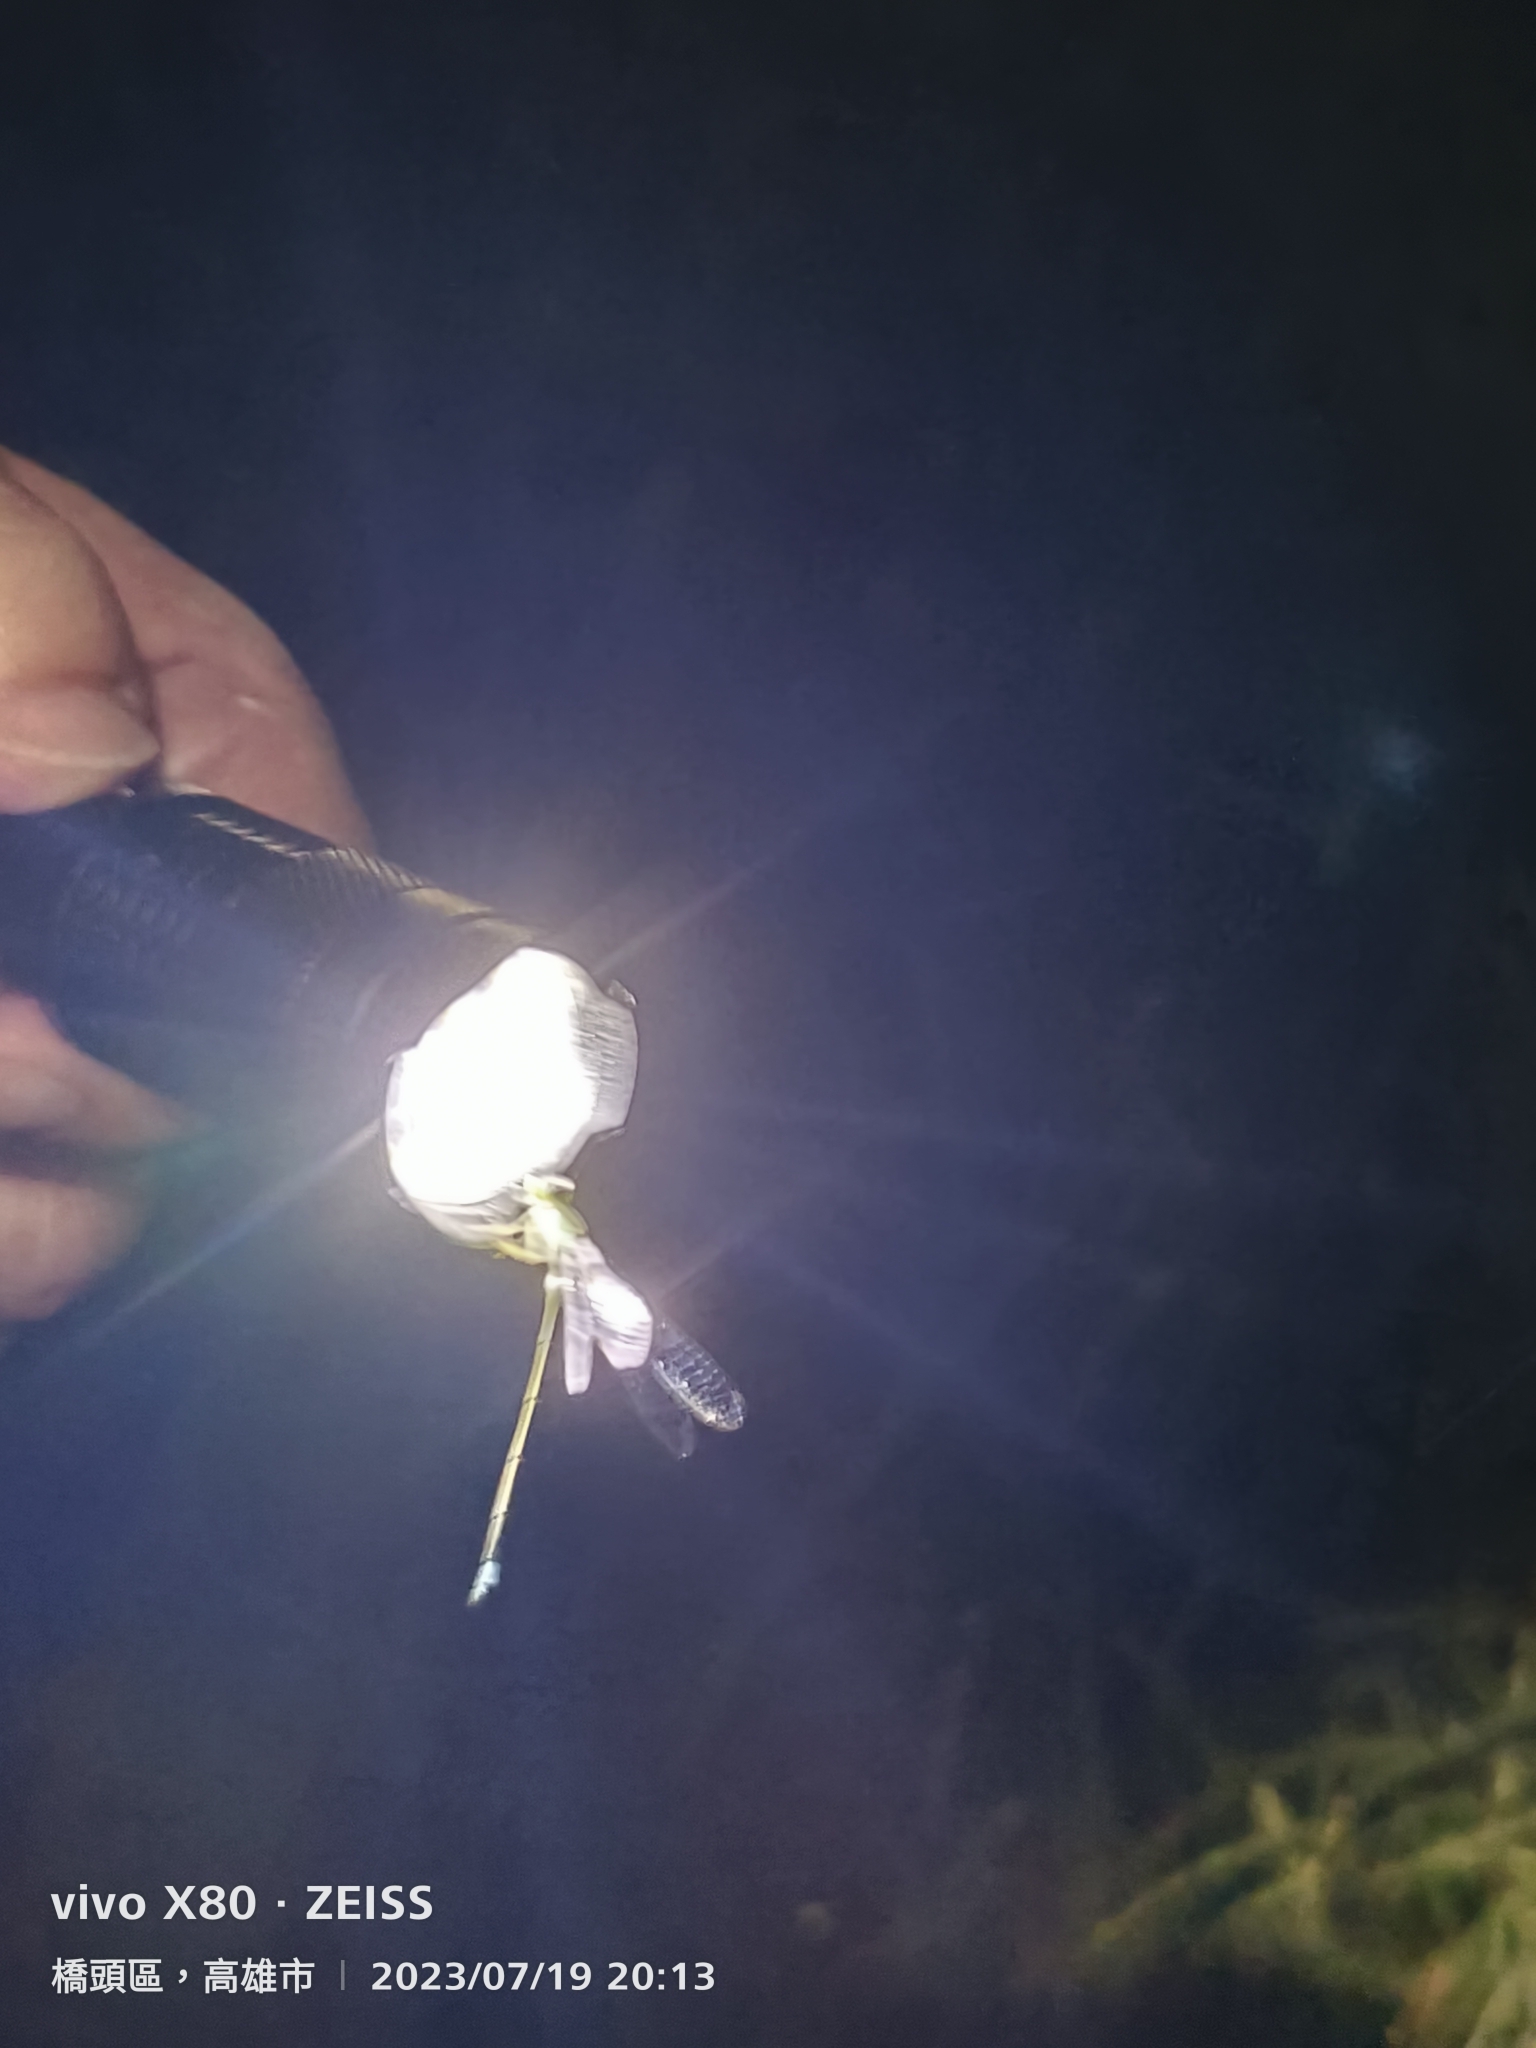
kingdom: Animalia
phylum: Arthropoda
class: Insecta
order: Odonata
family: Coenagrionidae
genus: Ischnura
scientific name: Ischnura senegalensis
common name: Tropical bluetail
